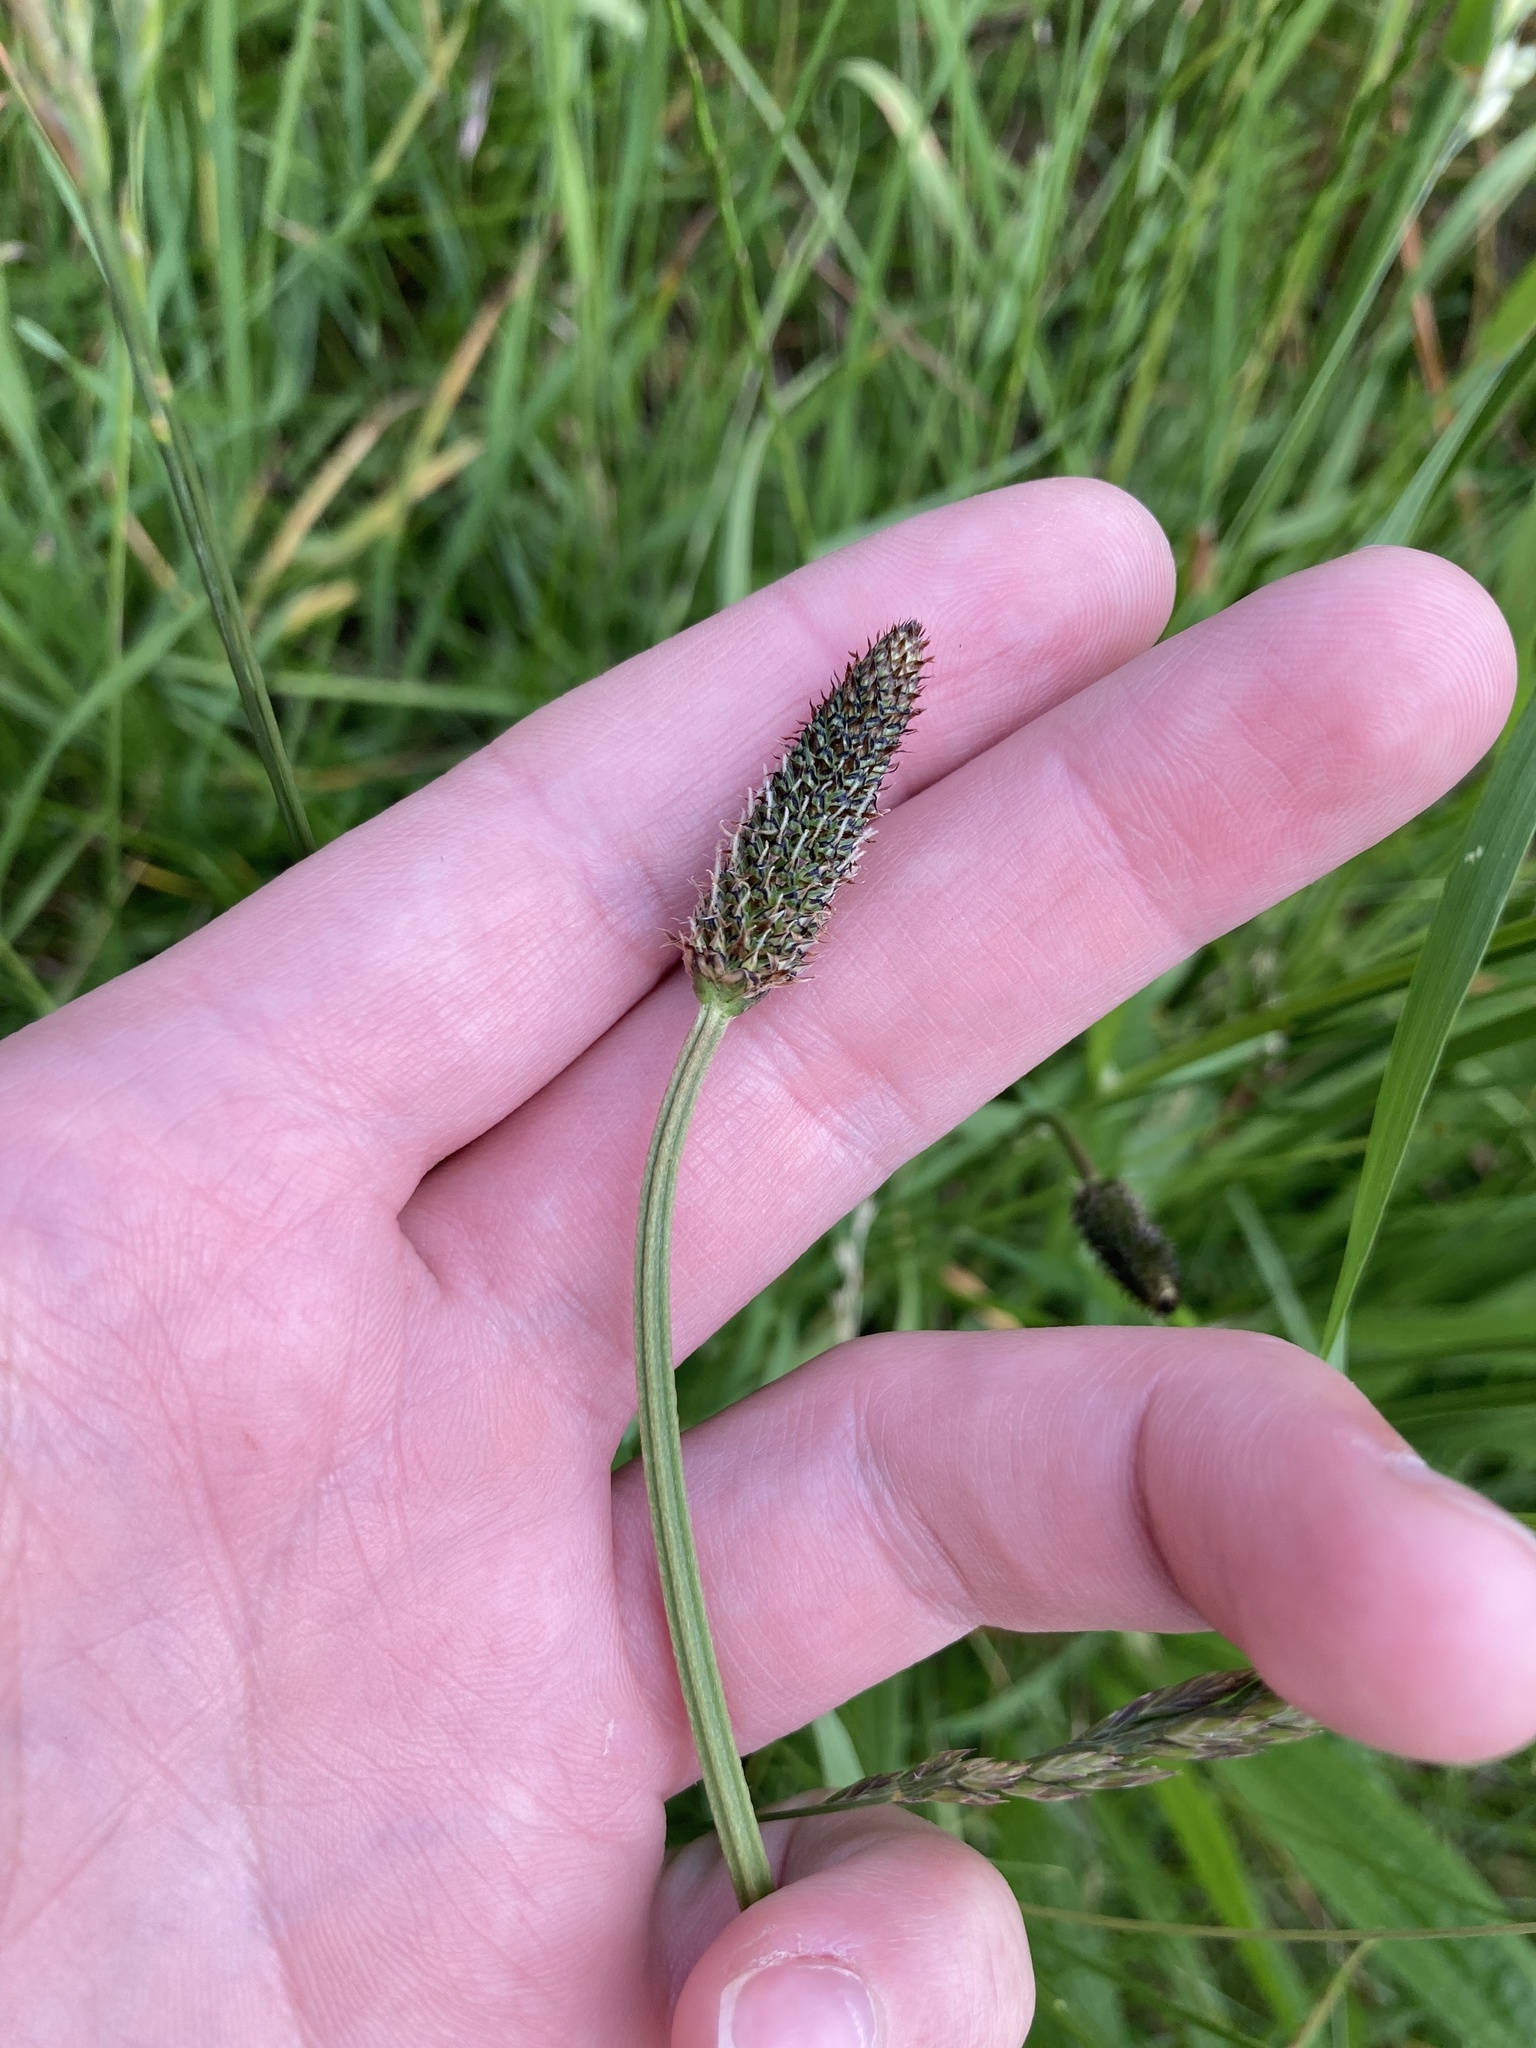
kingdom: Plantae
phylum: Tracheophyta
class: Magnoliopsida
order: Lamiales
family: Plantaginaceae
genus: Plantago
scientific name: Plantago lanceolata
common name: Ribwort plantain
